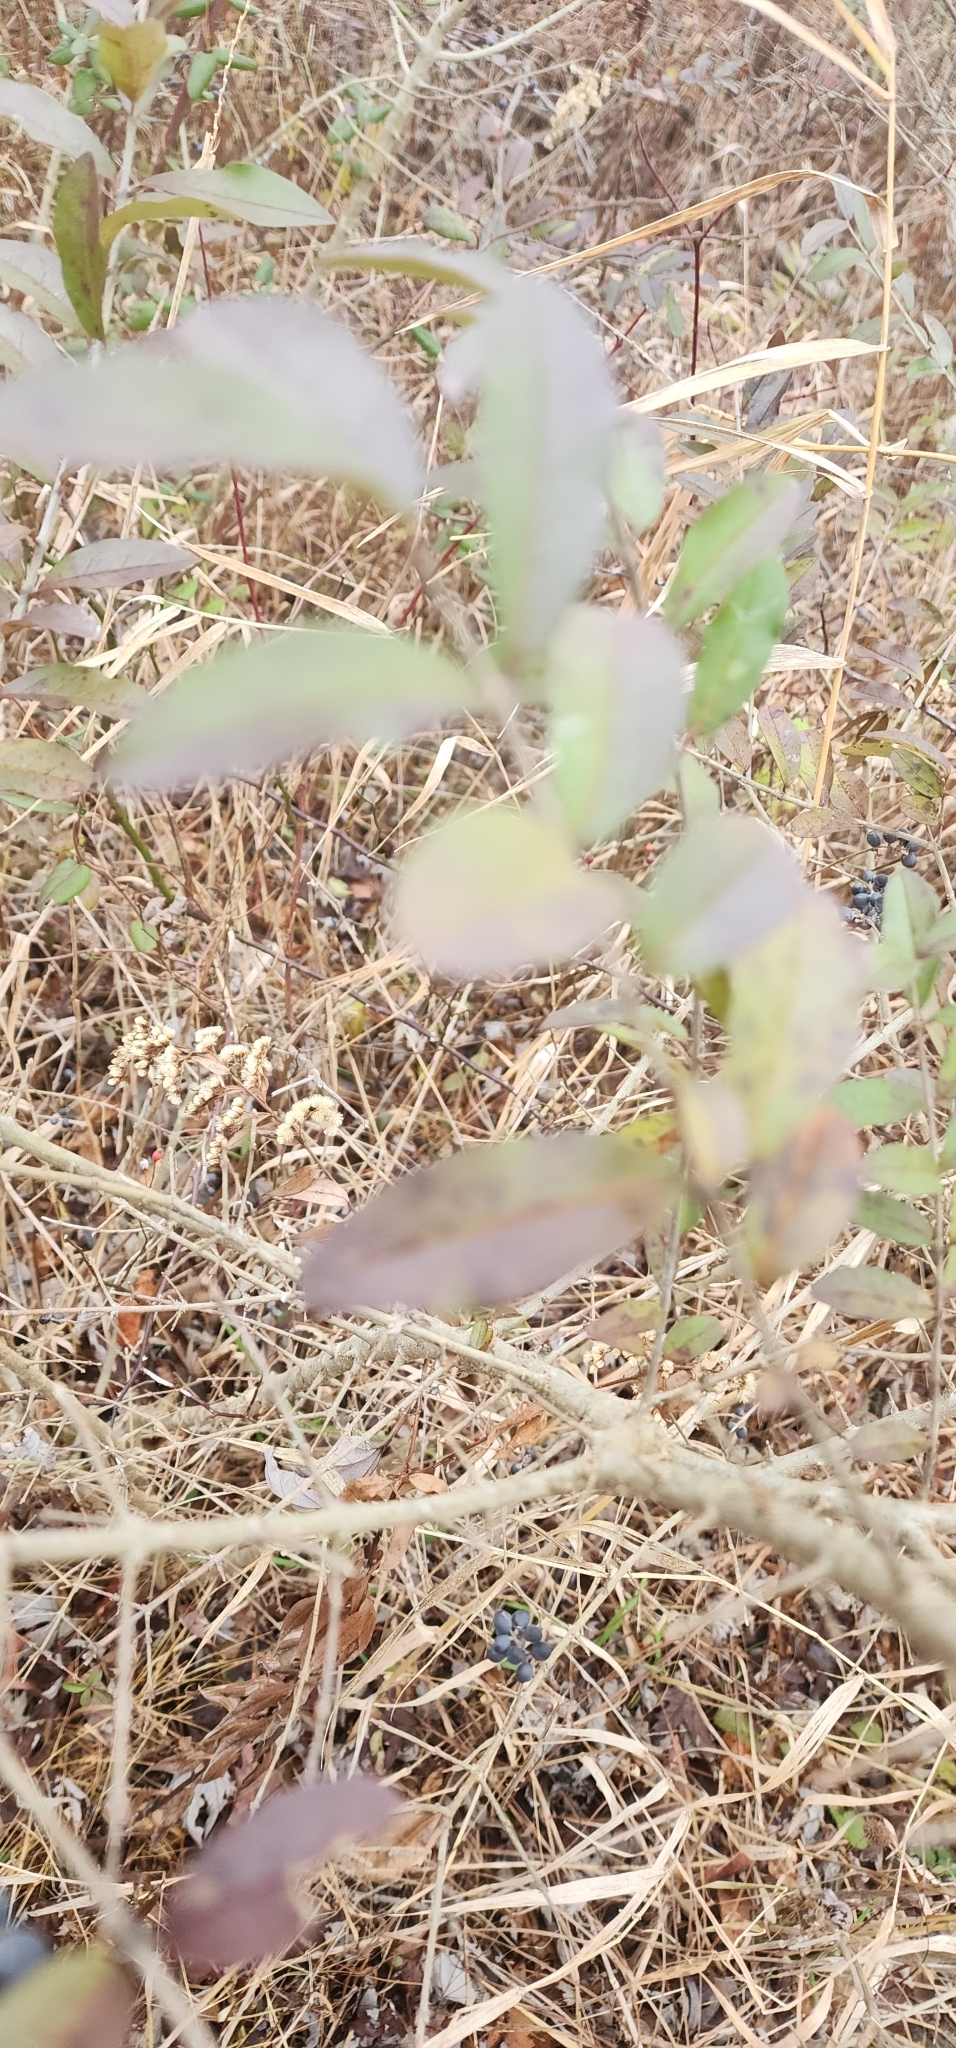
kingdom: Plantae
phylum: Tracheophyta
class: Magnoliopsida
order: Lamiales
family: Oleaceae
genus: Ligustrum
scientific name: Ligustrum obtusifolium
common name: Border privet
